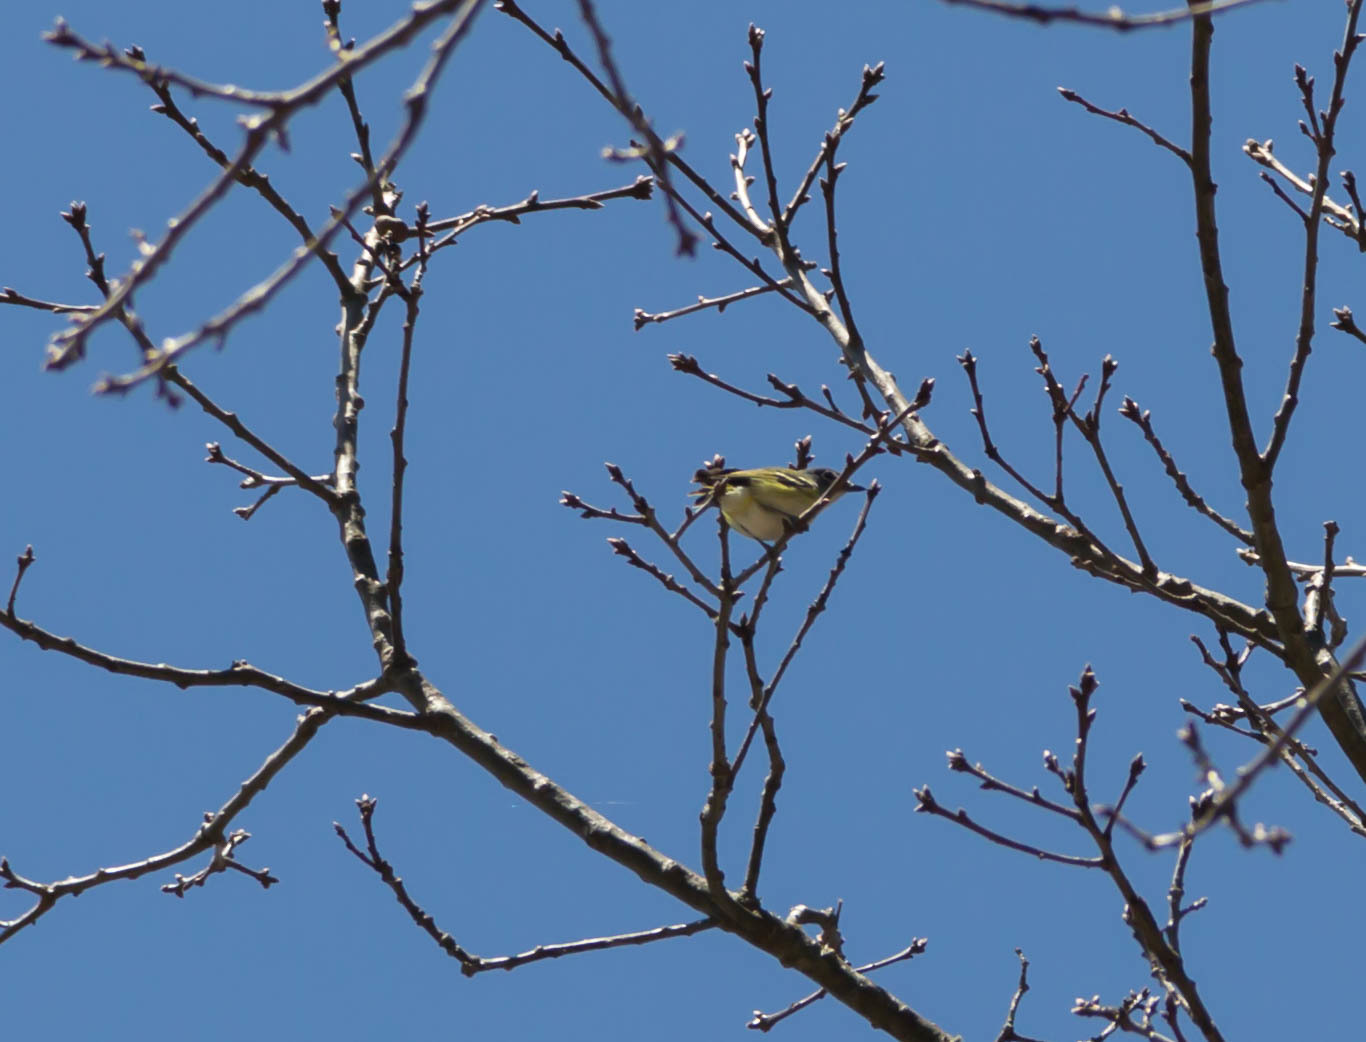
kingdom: Animalia
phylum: Chordata
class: Aves
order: Passeriformes
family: Vireonidae
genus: Vireo
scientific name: Vireo solitarius
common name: Blue-headed vireo
